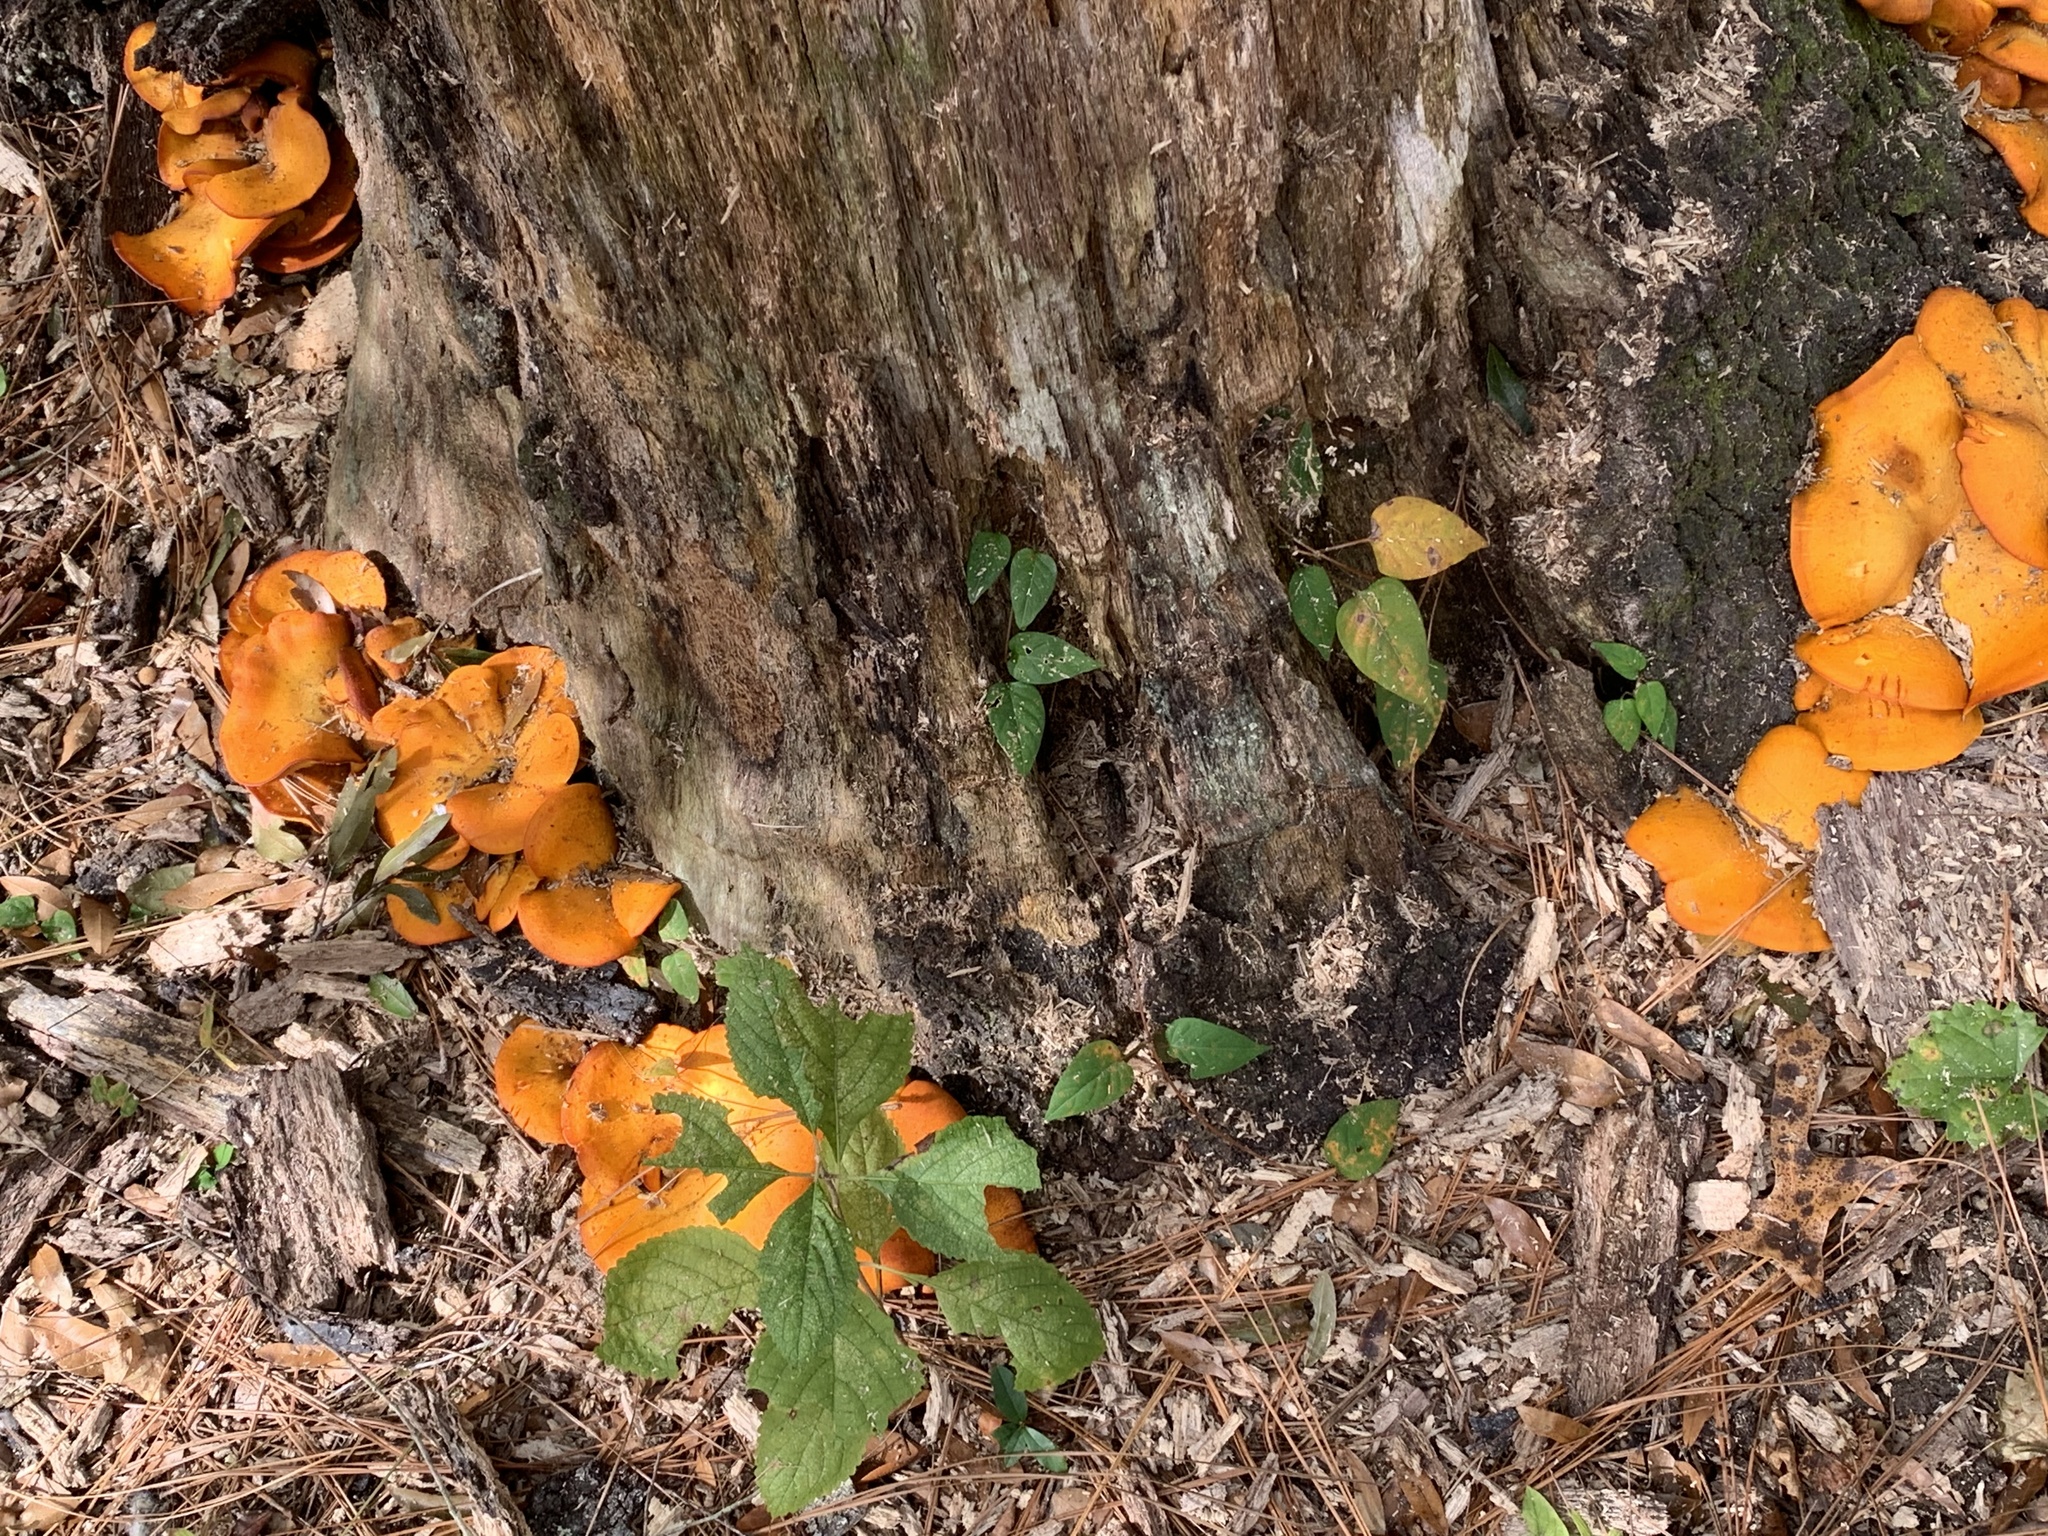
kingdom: Fungi
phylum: Basidiomycota
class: Agaricomycetes
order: Agaricales
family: Omphalotaceae
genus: Omphalotus
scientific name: Omphalotus subilludens
